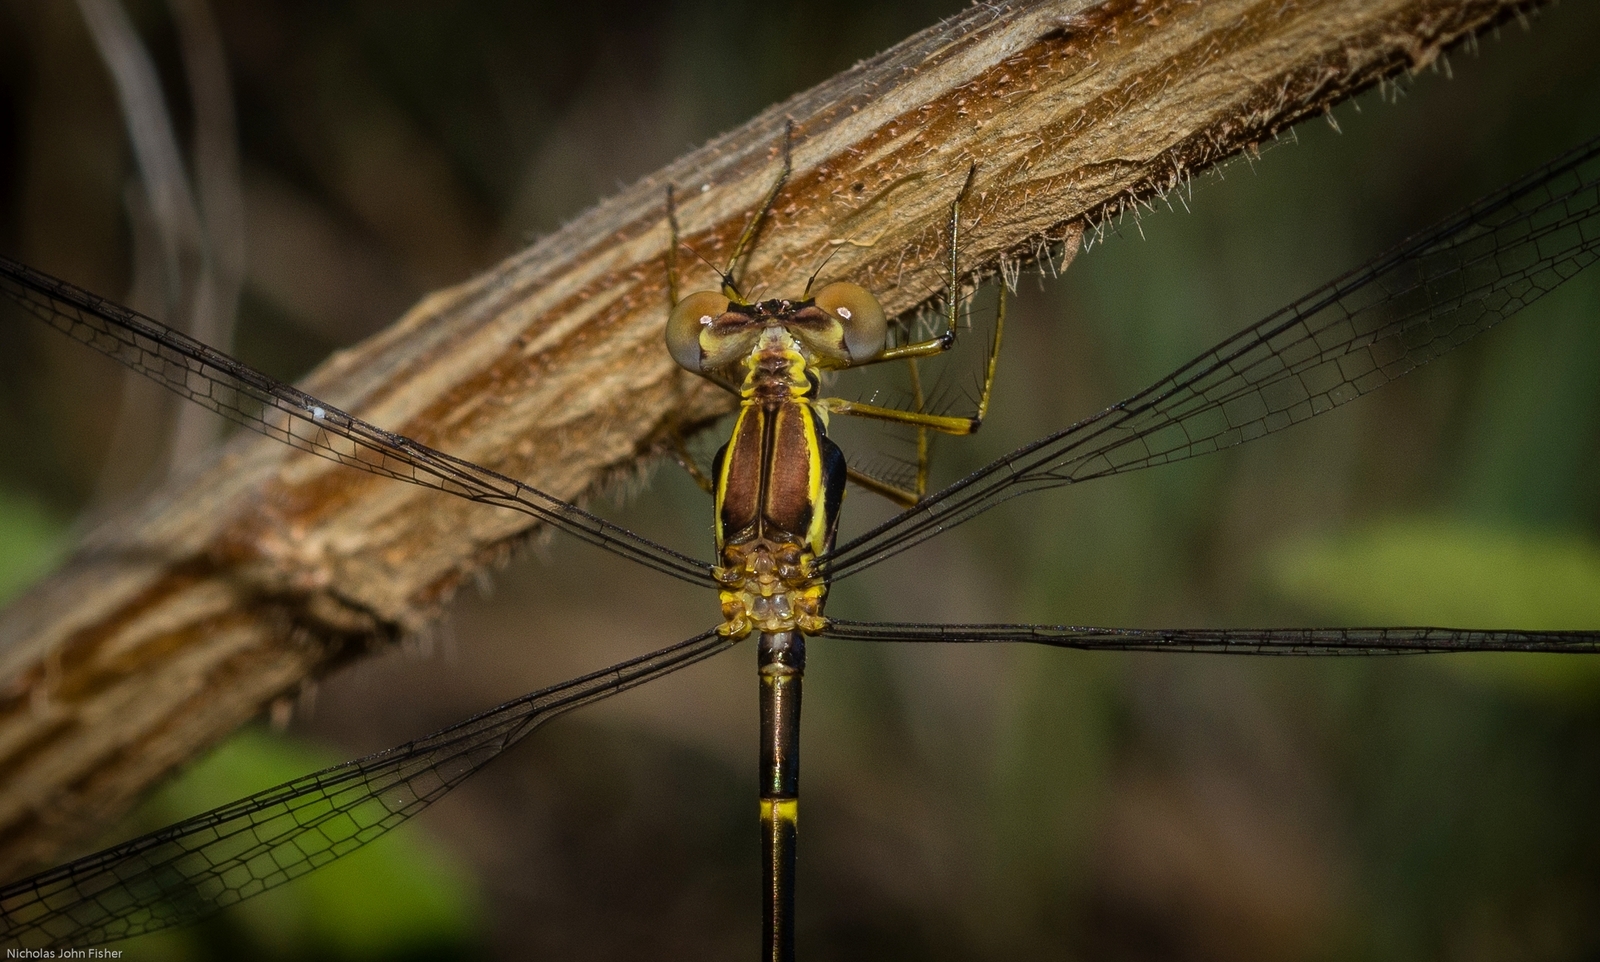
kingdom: Animalia
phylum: Arthropoda
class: Insecta
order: Odonata
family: Synlestidae
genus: Episynlestes
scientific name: Episynlestes albicaudus
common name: Southern whitetip
